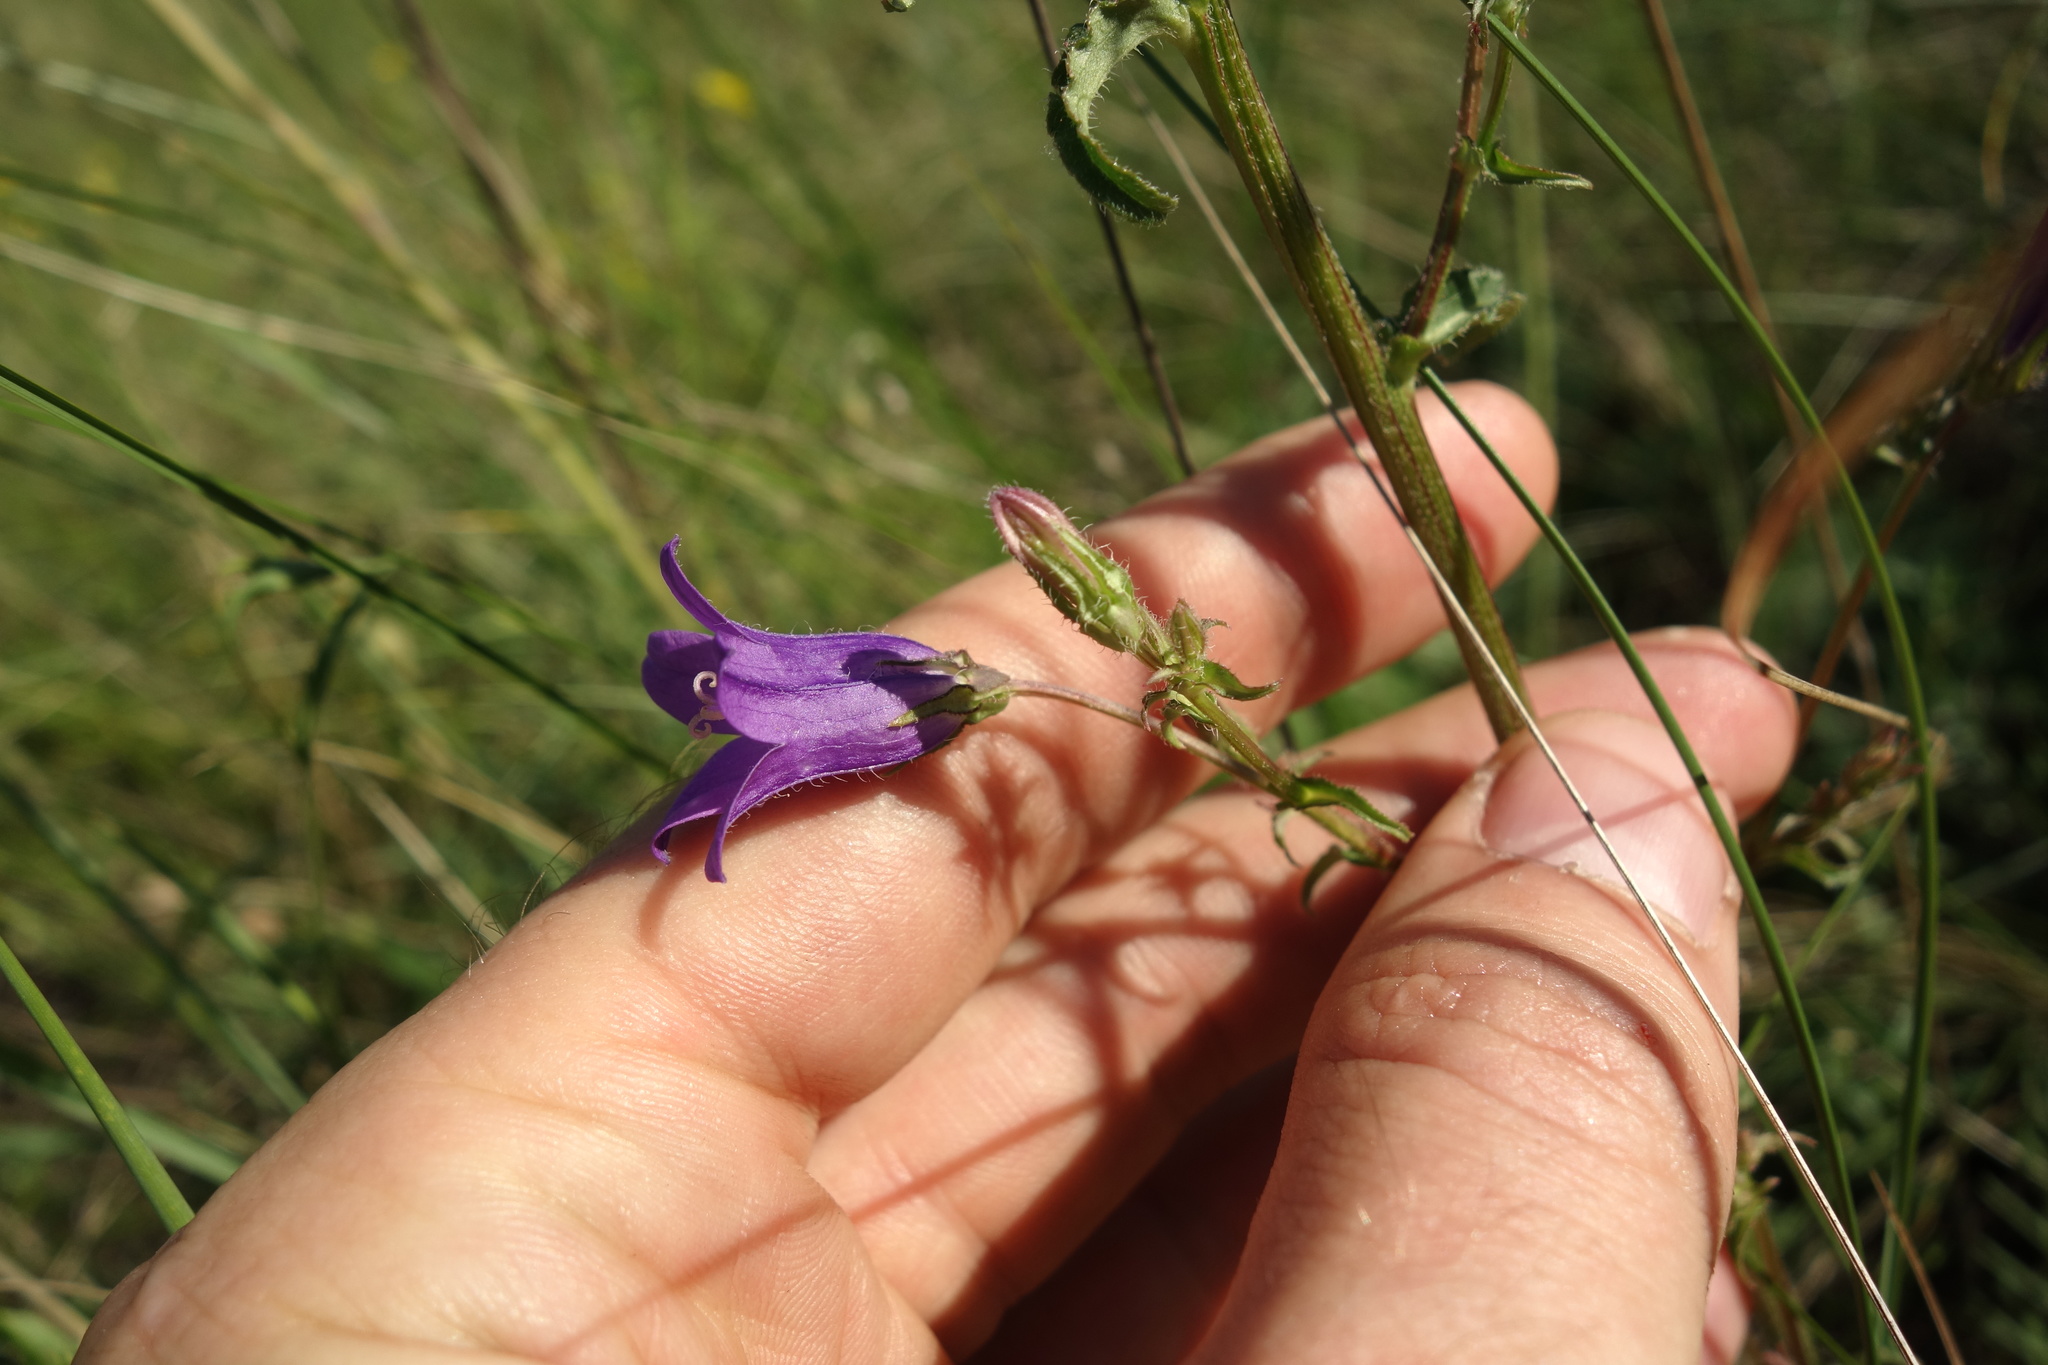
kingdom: Plantae
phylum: Tracheophyta
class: Magnoliopsida
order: Asterales
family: Campanulaceae
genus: Campanula
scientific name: Campanula sibirica
